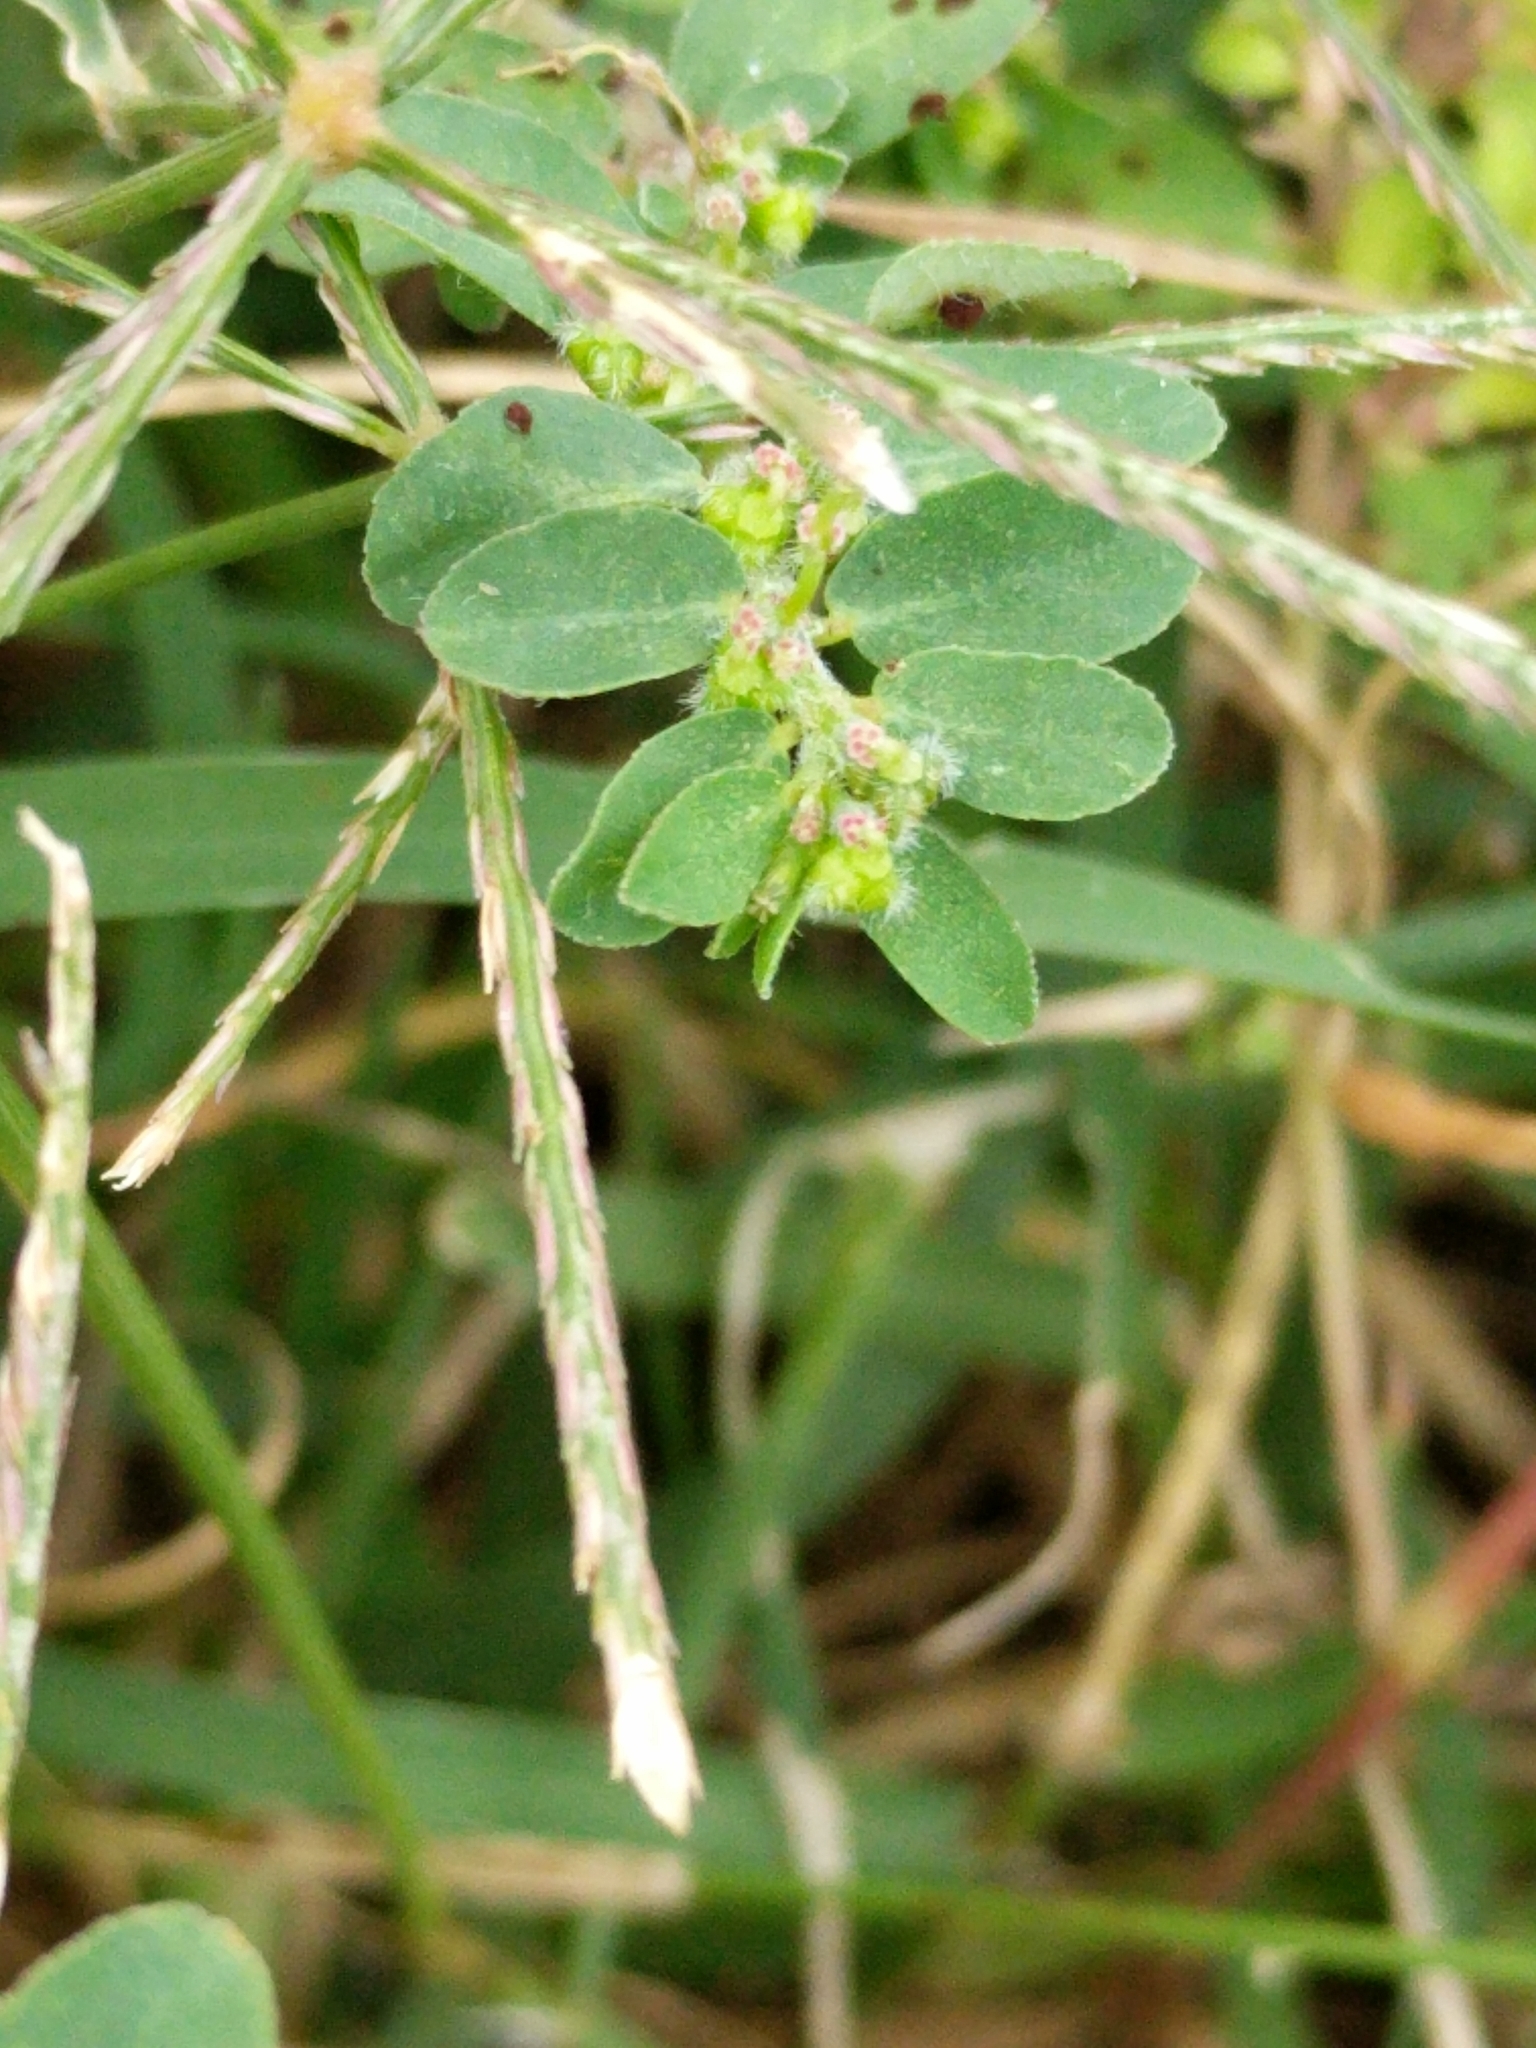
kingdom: Plantae
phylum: Tracheophyta
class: Magnoliopsida
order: Malpighiales
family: Euphorbiaceae
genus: Euphorbia
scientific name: Euphorbia prostrata
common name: Prostrate sandmat
